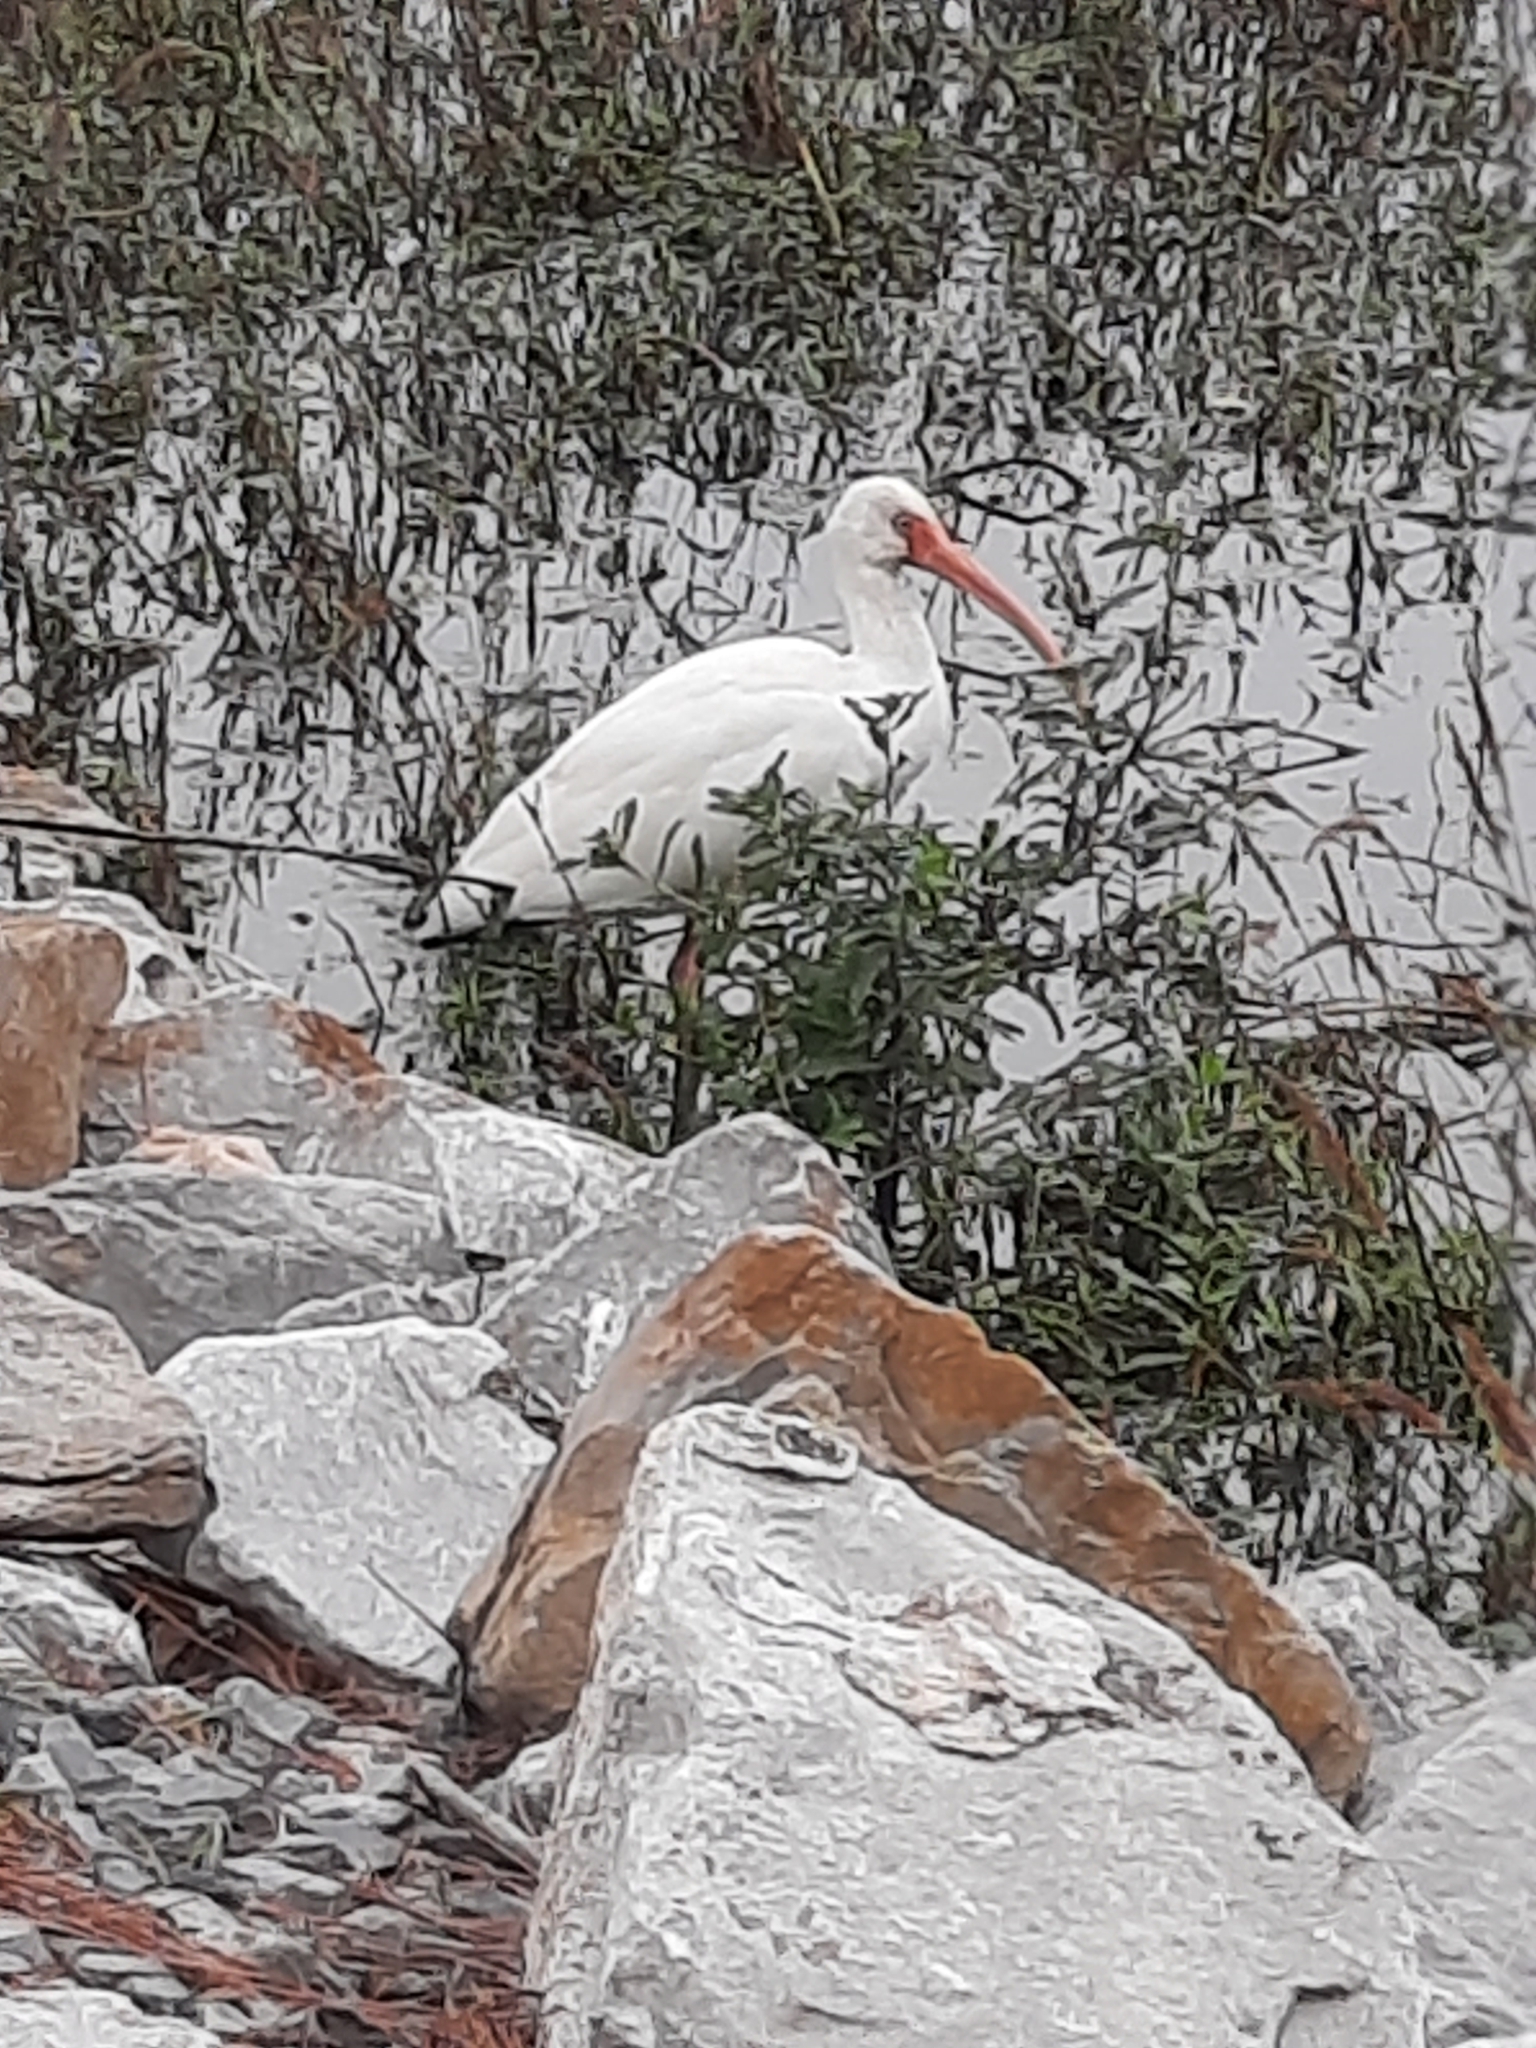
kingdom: Animalia
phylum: Chordata
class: Aves
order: Pelecaniformes
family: Threskiornithidae
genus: Eudocimus
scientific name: Eudocimus albus
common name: White ibis
